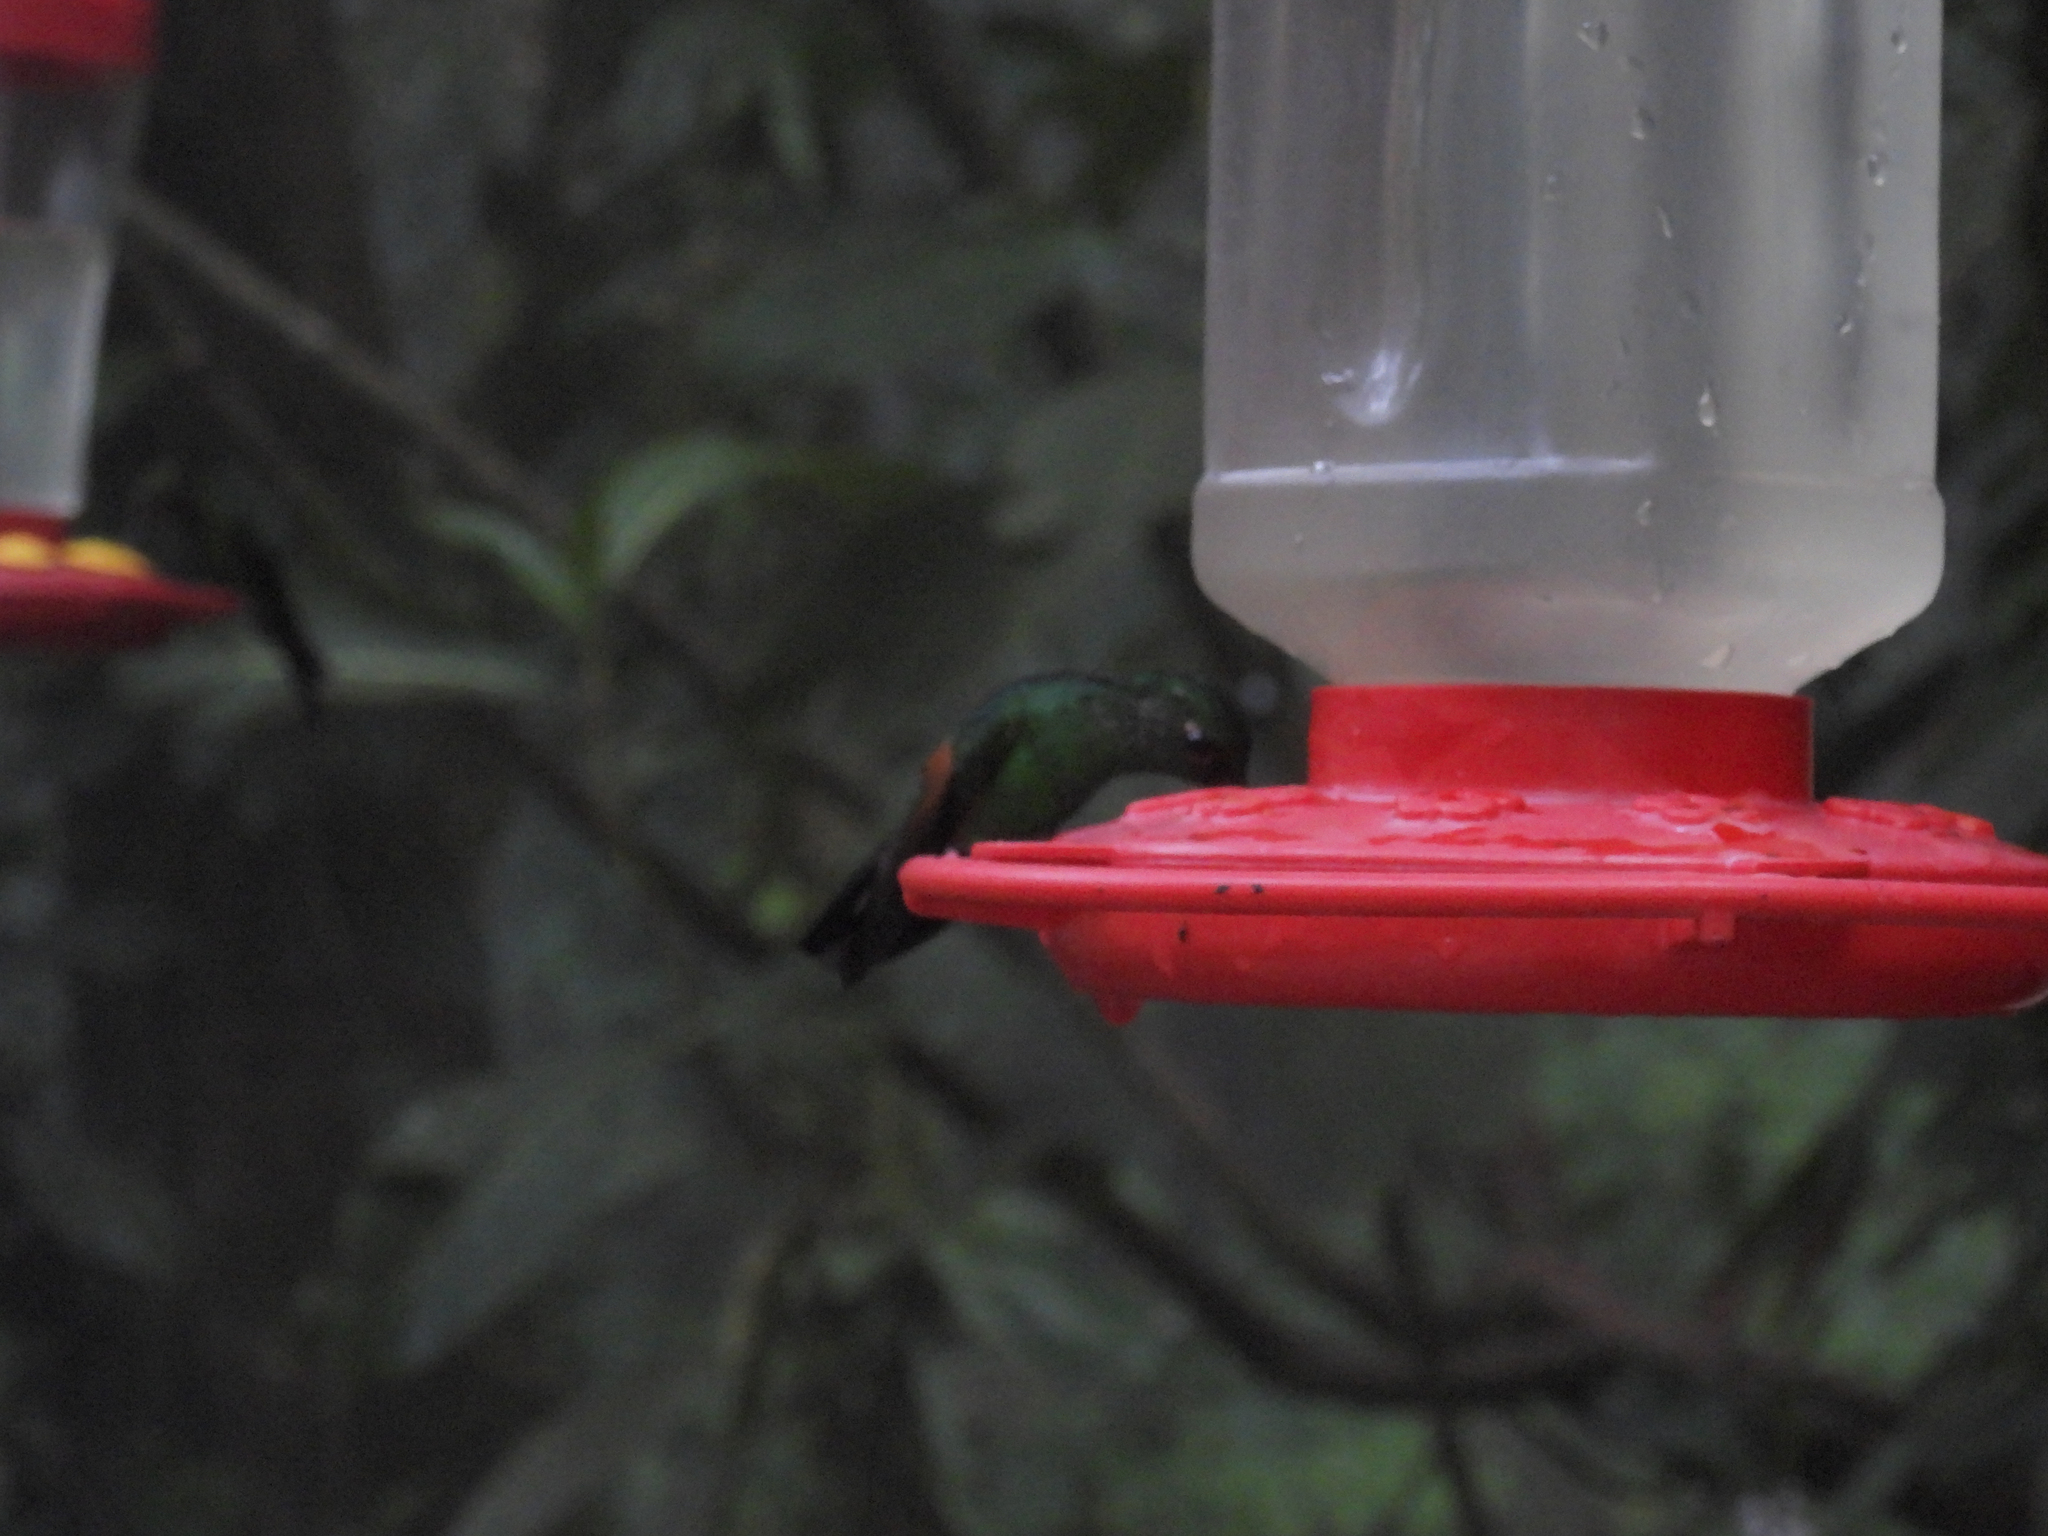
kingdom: Animalia
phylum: Chordata
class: Aves
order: Apodiformes
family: Trochilidae
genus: Eupherusa
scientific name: Eupherusa eximia
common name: Stripe-tailed hummingbird
